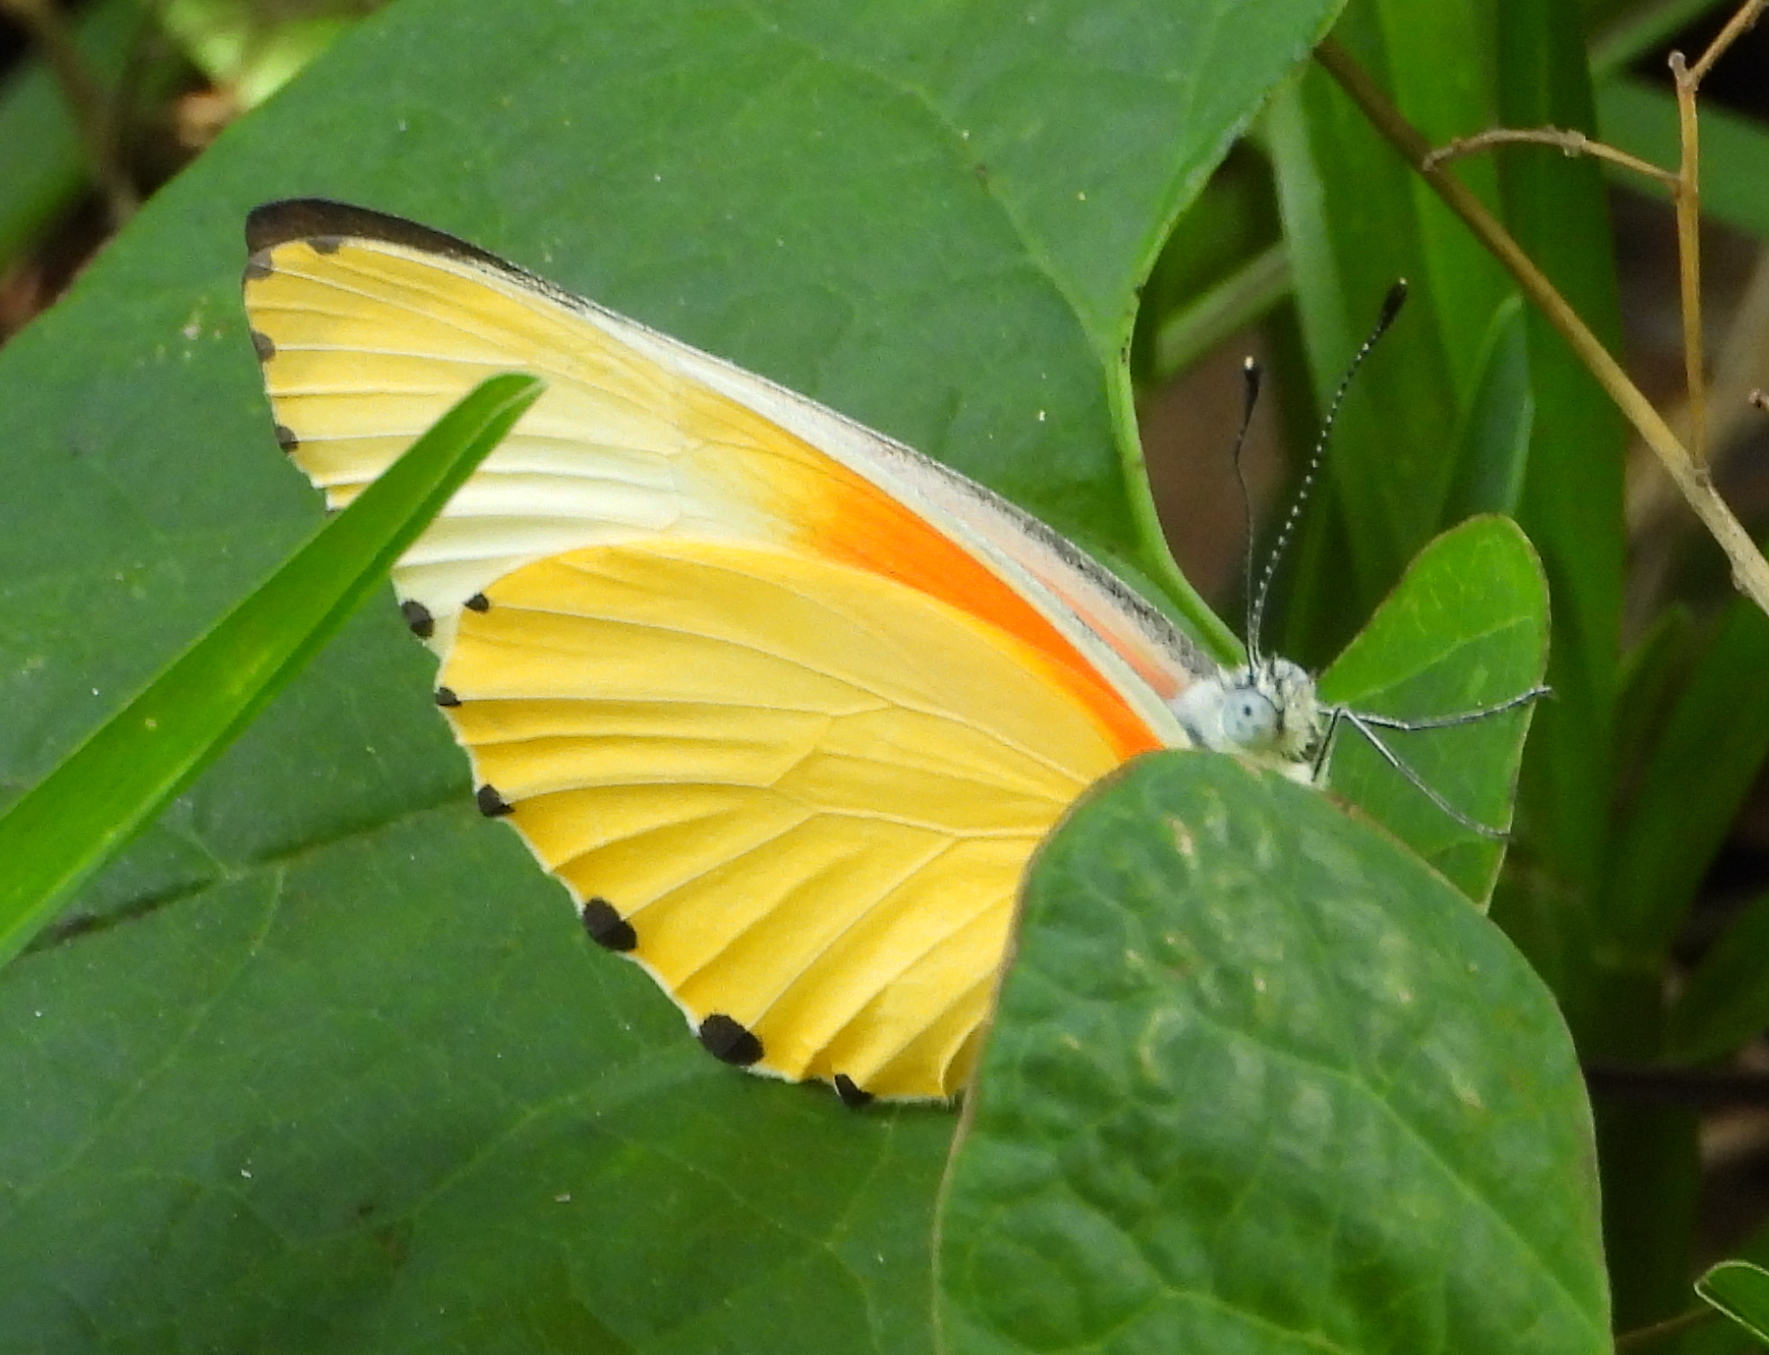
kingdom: Animalia
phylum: Arthropoda
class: Insecta
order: Lepidoptera
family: Pieridae
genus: Mylothris
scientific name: Mylothris agathina
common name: Eastern dotted border
